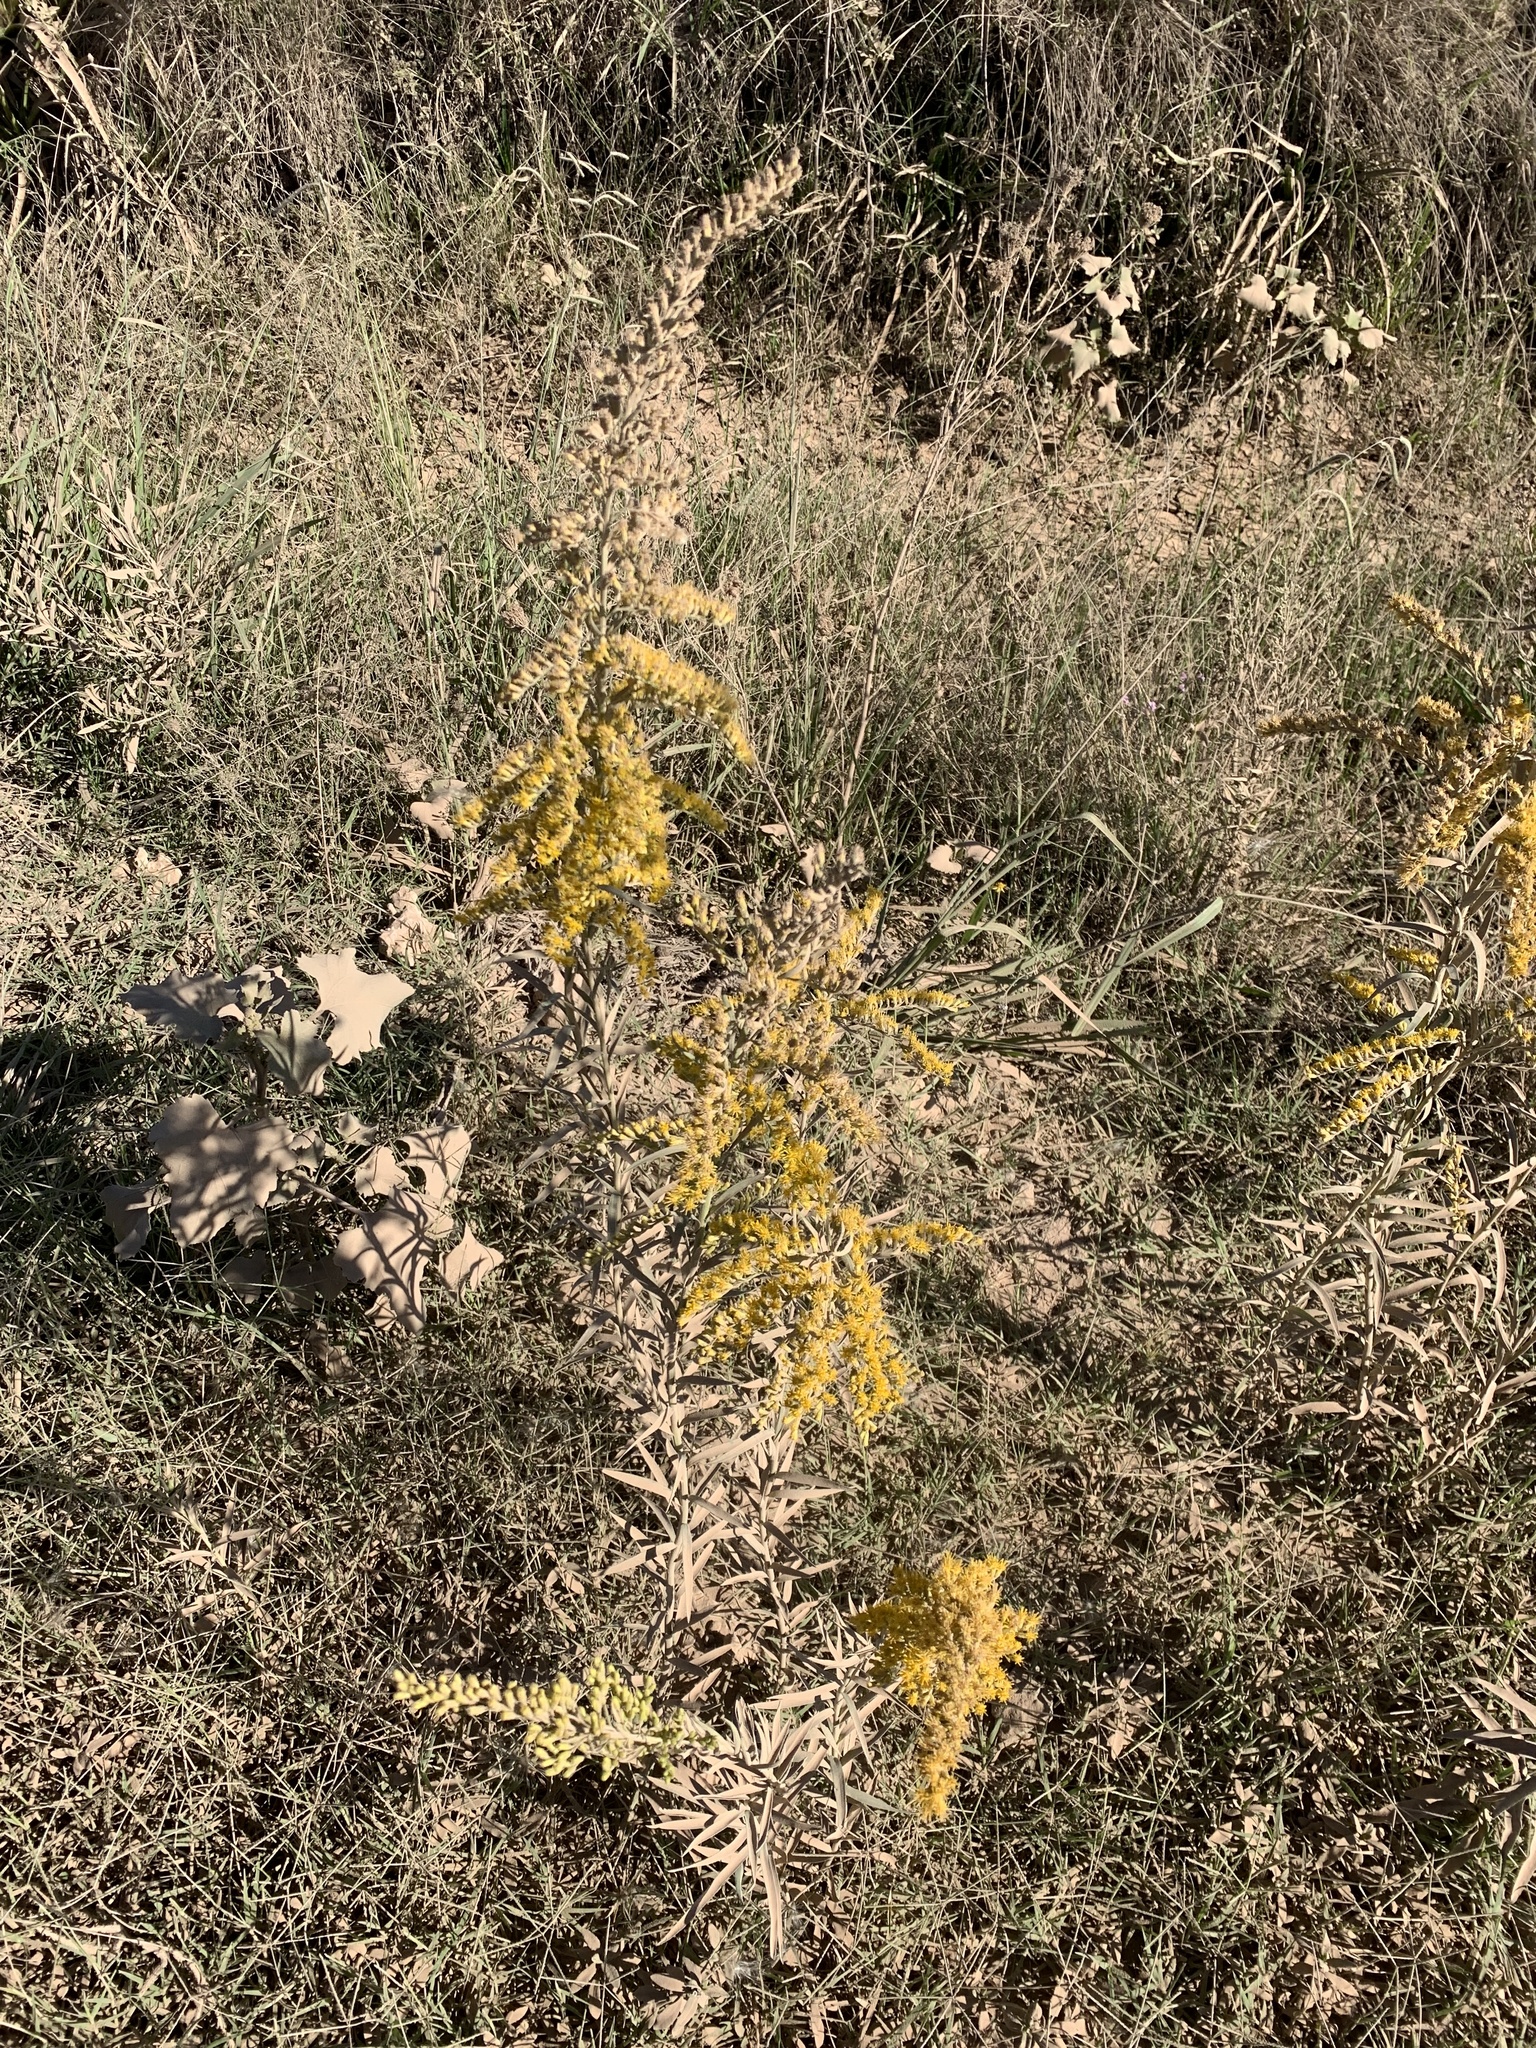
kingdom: Plantae
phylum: Tracheophyta
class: Magnoliopsida
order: Asterales
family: Asteraceae
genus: Solidago
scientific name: Solidago chilensis
